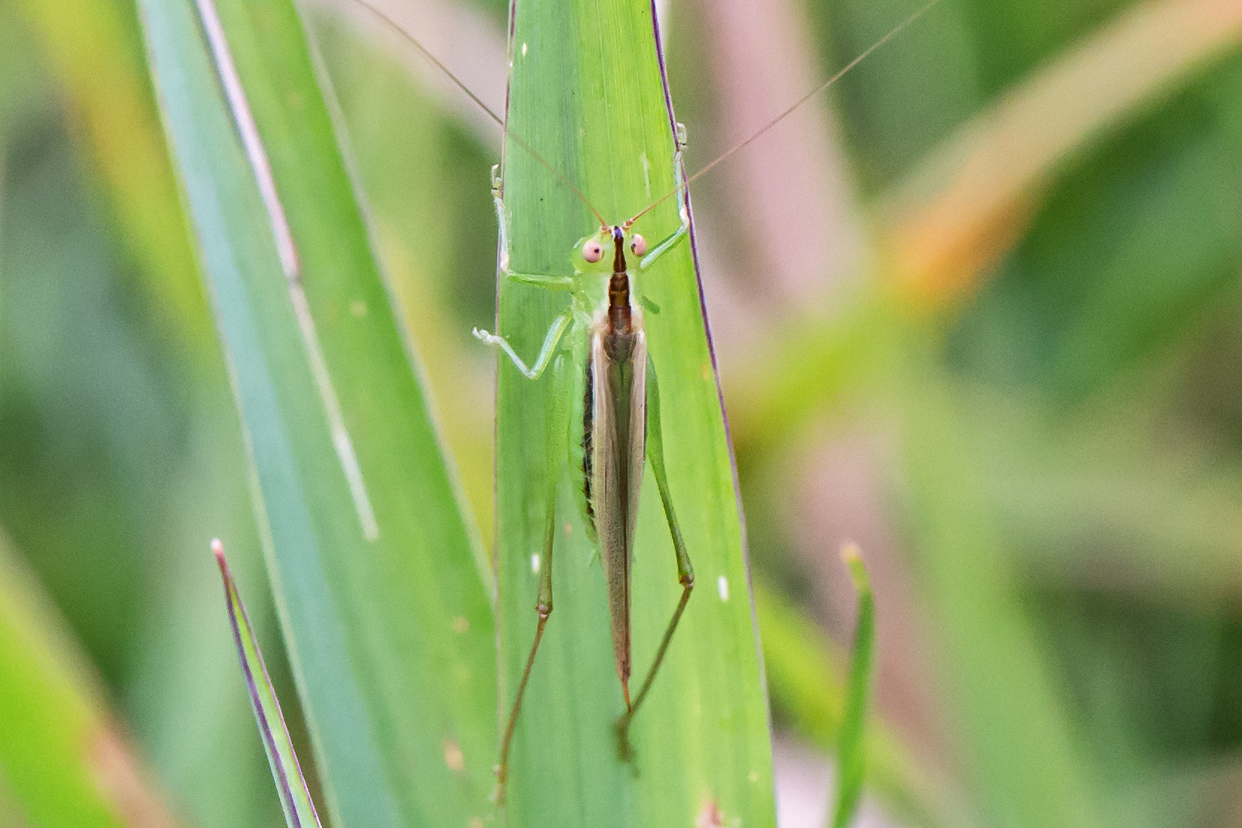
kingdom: Animalia
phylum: Arthropoda
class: Insecta
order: Orthoptera
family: Tettigoniidae
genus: Conocephalus
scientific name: Conocephalus fasciatus
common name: Slender meadow katydid
